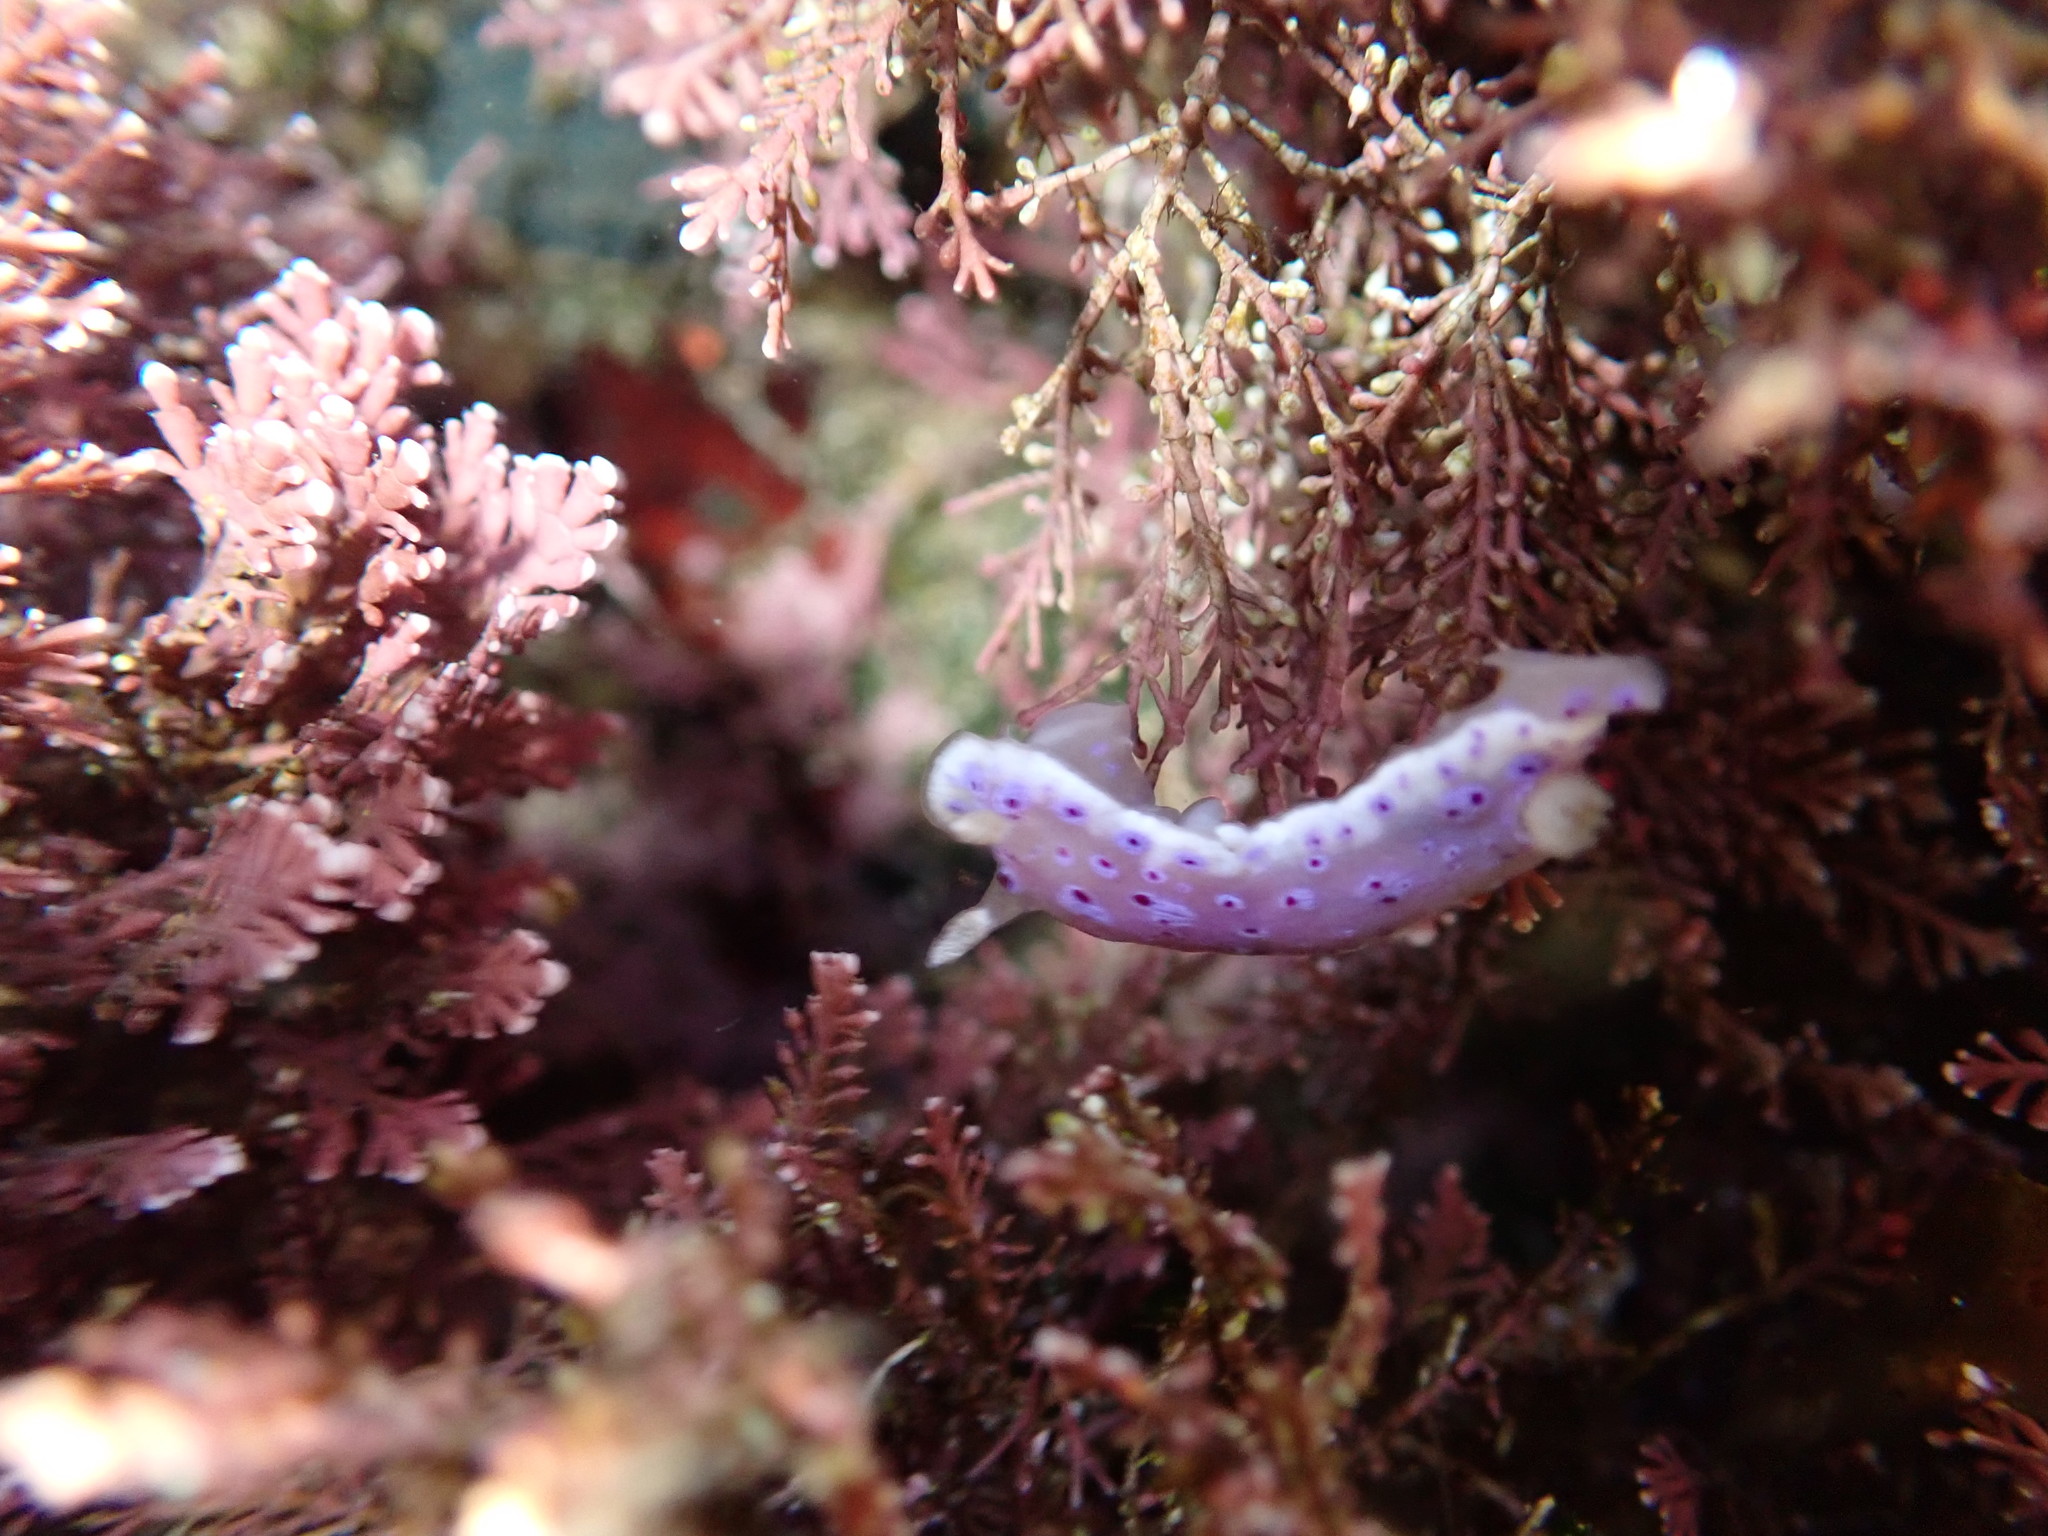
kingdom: Animalia
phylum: Mollusca
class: Gastropoda
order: Nudibranchia
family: Chromodorididae
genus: Goniobranchus
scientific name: Goniobranchus thompsoni
